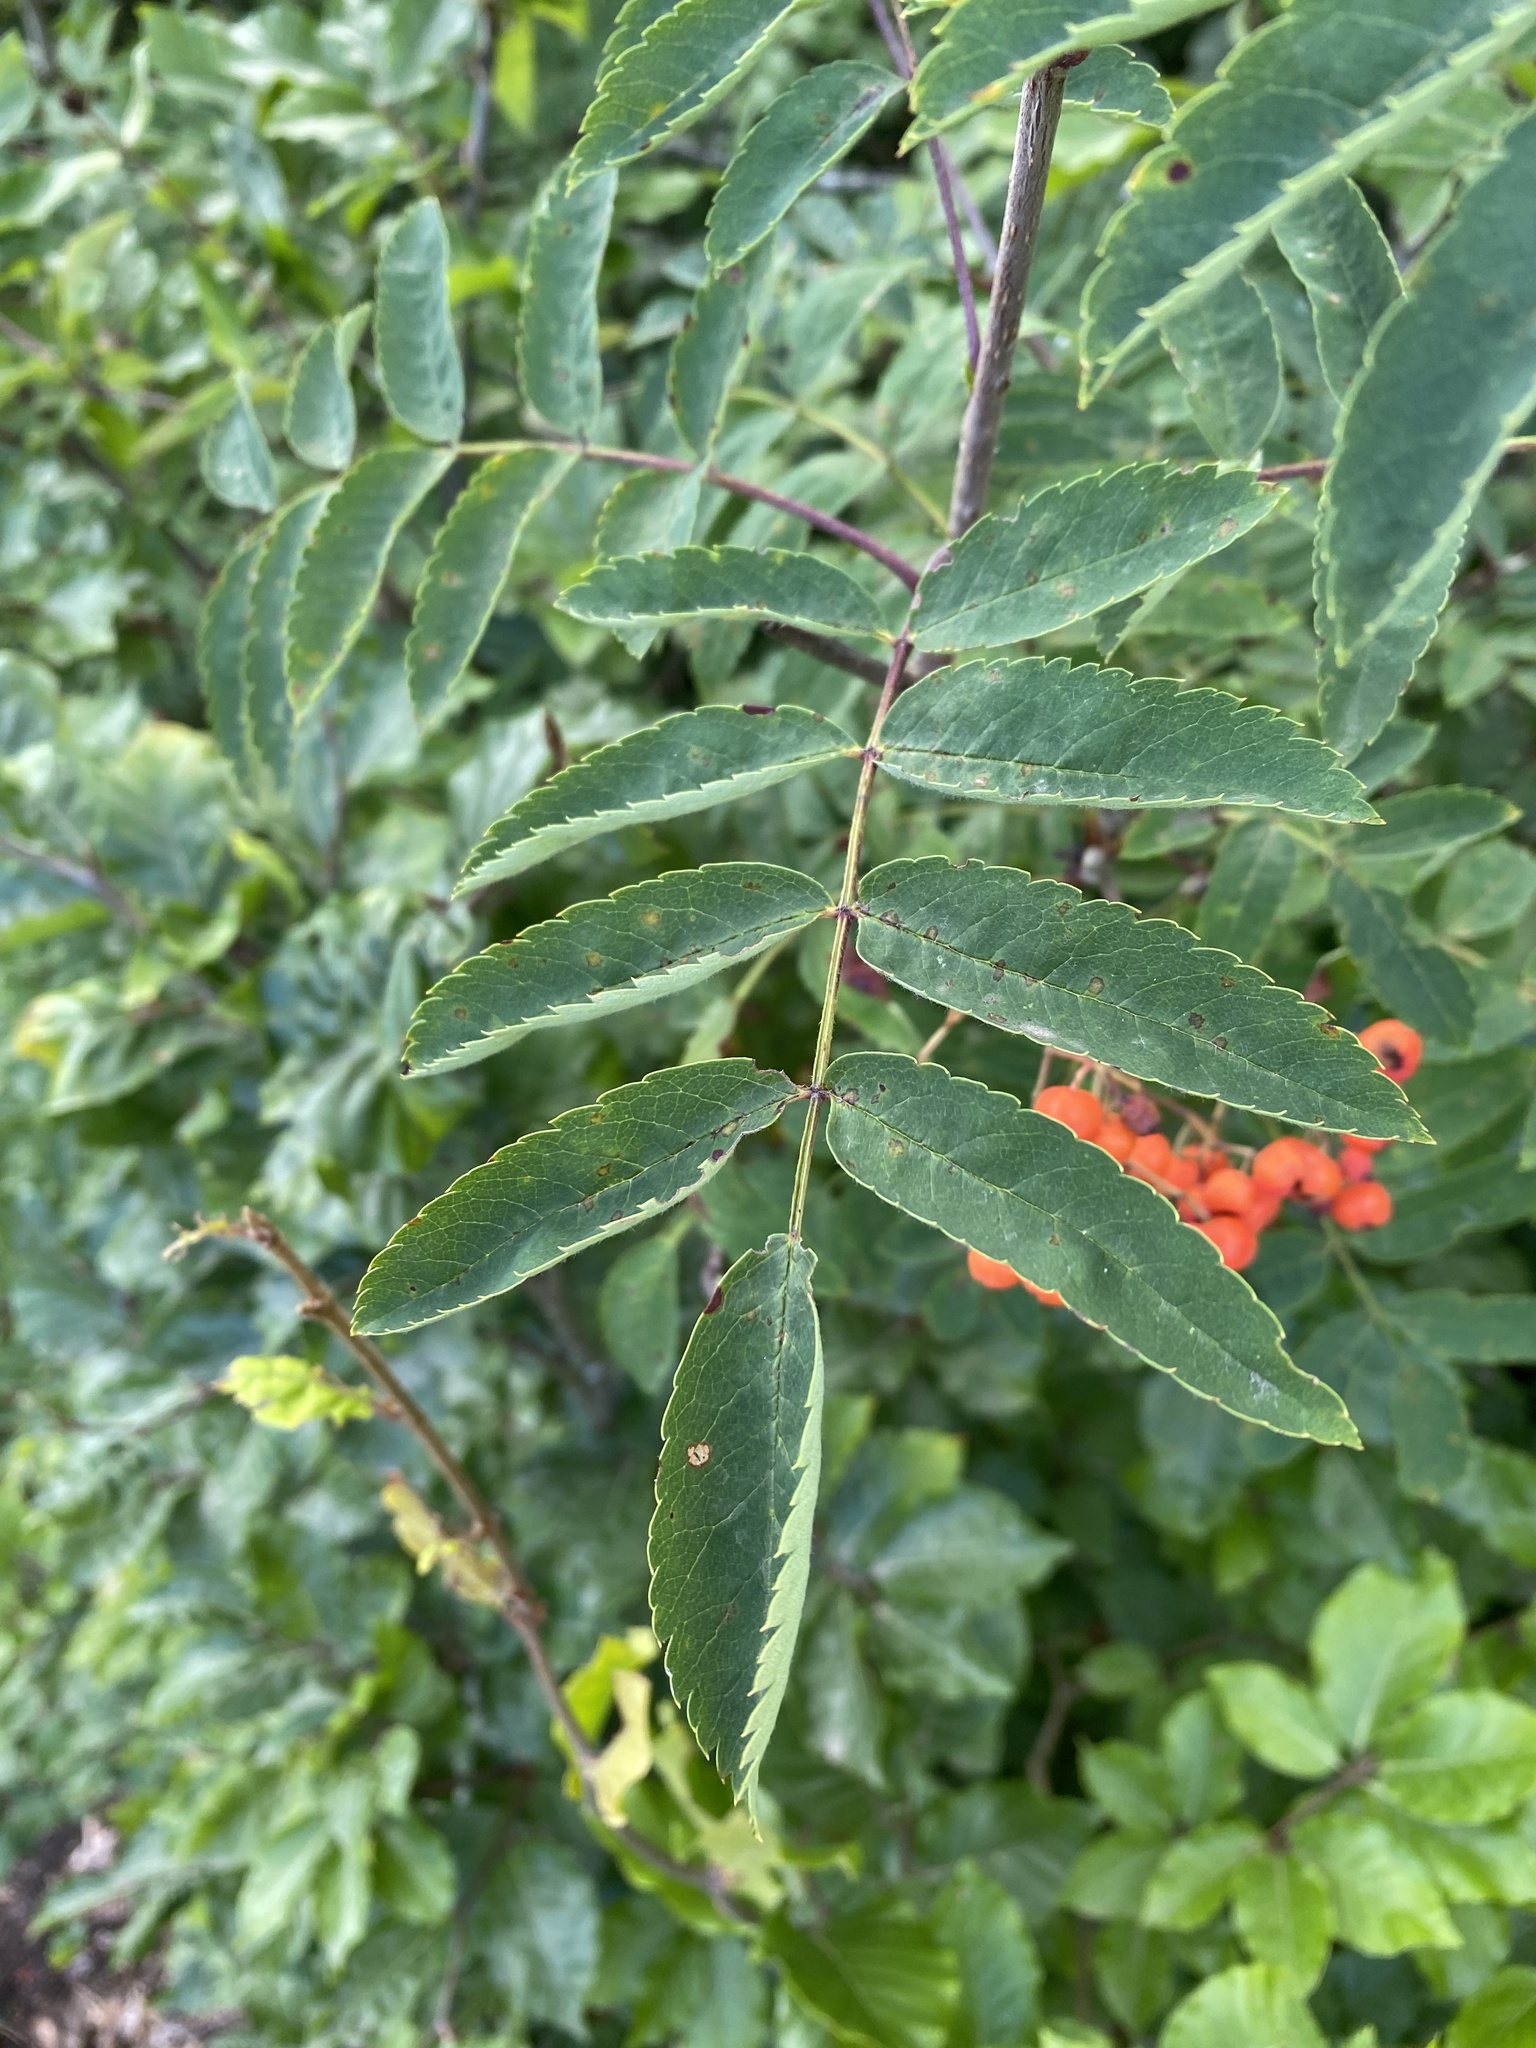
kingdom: Plantae
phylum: Tracheophyta
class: Magnoliopsida
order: Rosales
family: Rosaceae
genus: Sorbus
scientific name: Sorbus aucuparia
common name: Rowan
